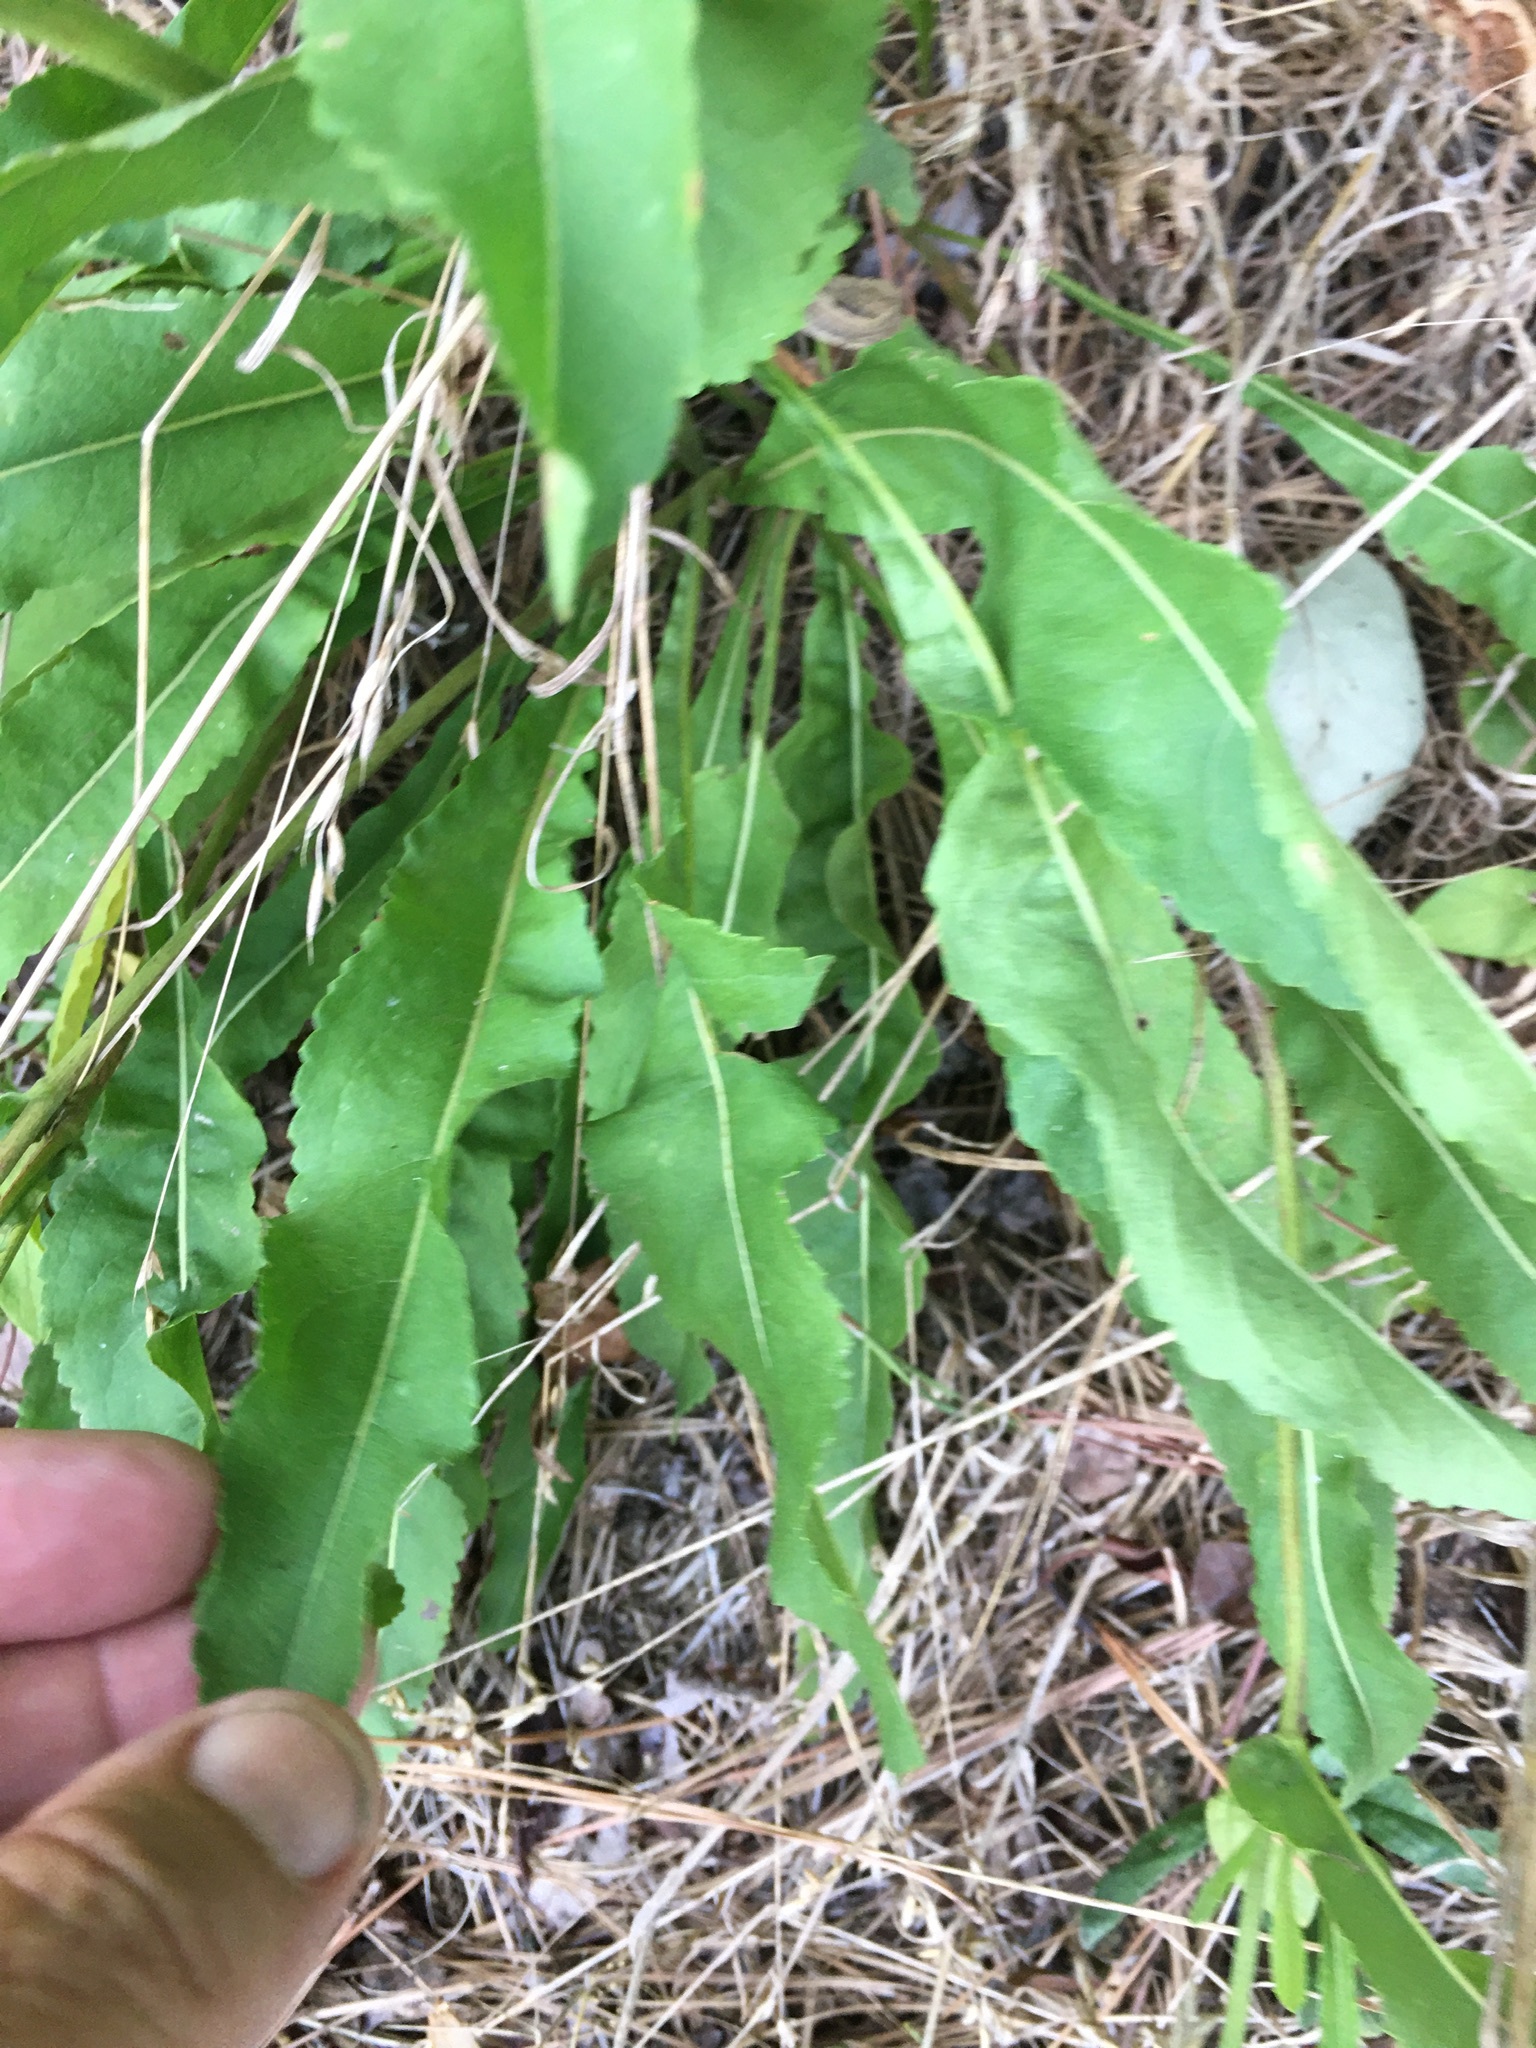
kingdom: Plantae
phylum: Tracheophyta
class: Magnoliopsida
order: Asterales
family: Asteraceae
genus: Parthenium
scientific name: Parthenium integrifolium
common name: American feverfew
